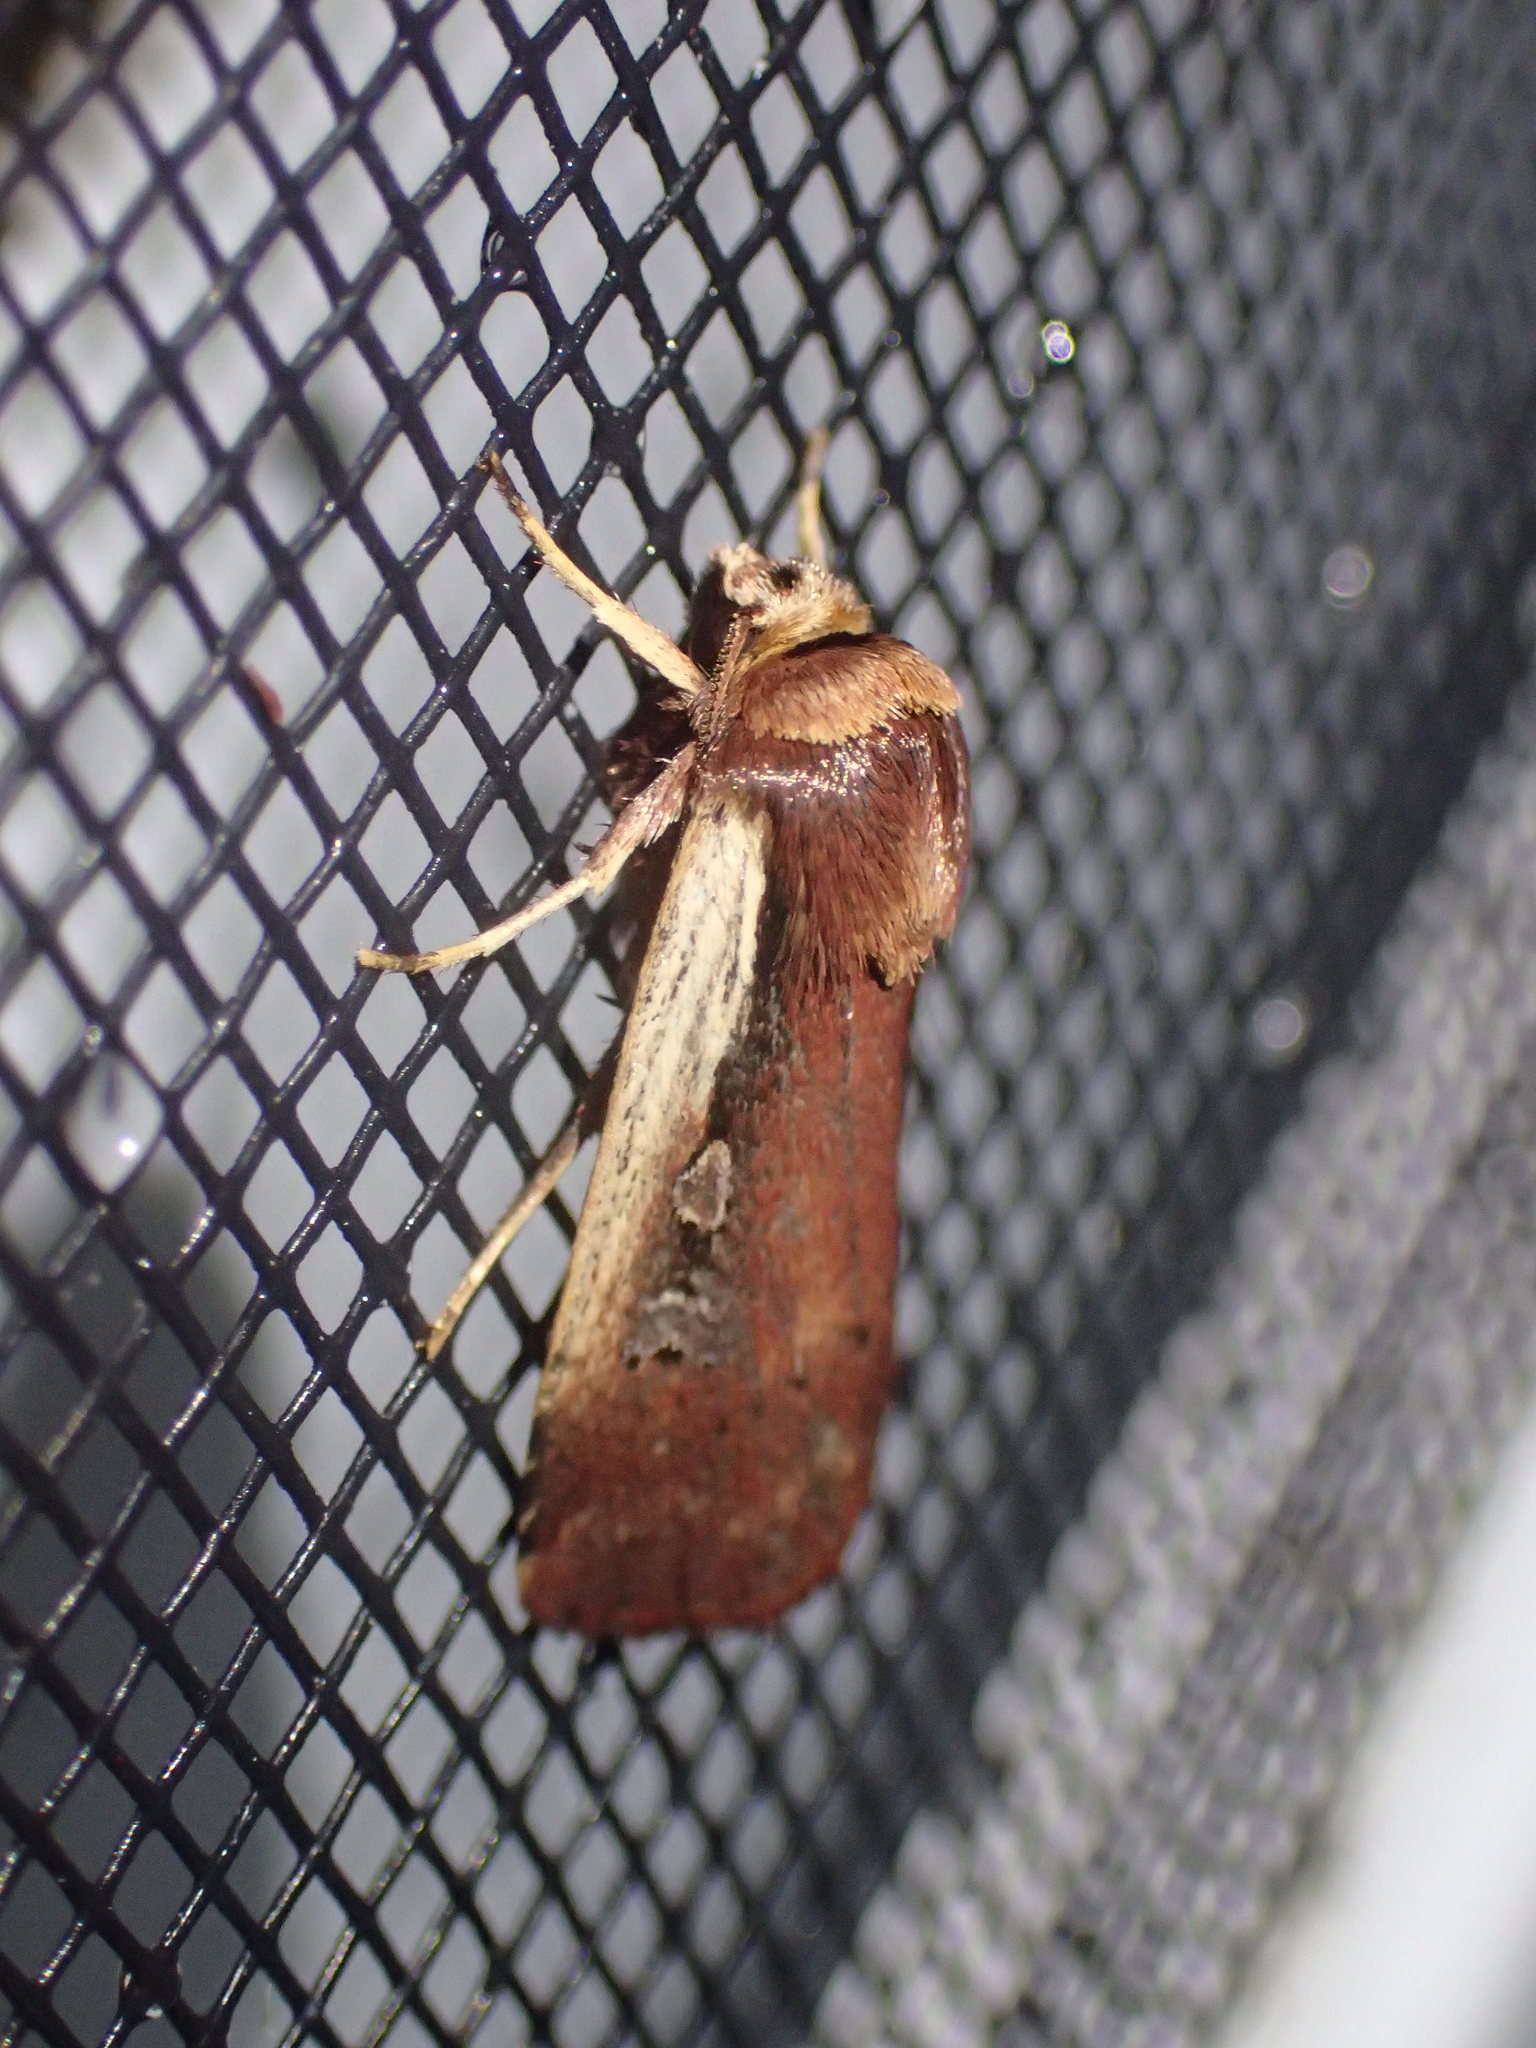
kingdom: Animalia
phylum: Arthropoda
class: Insecta
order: Lepidoptera
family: Noctuidae
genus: Ochropleura
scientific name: Ochropleura implecta
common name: Flame-shouldered dart
